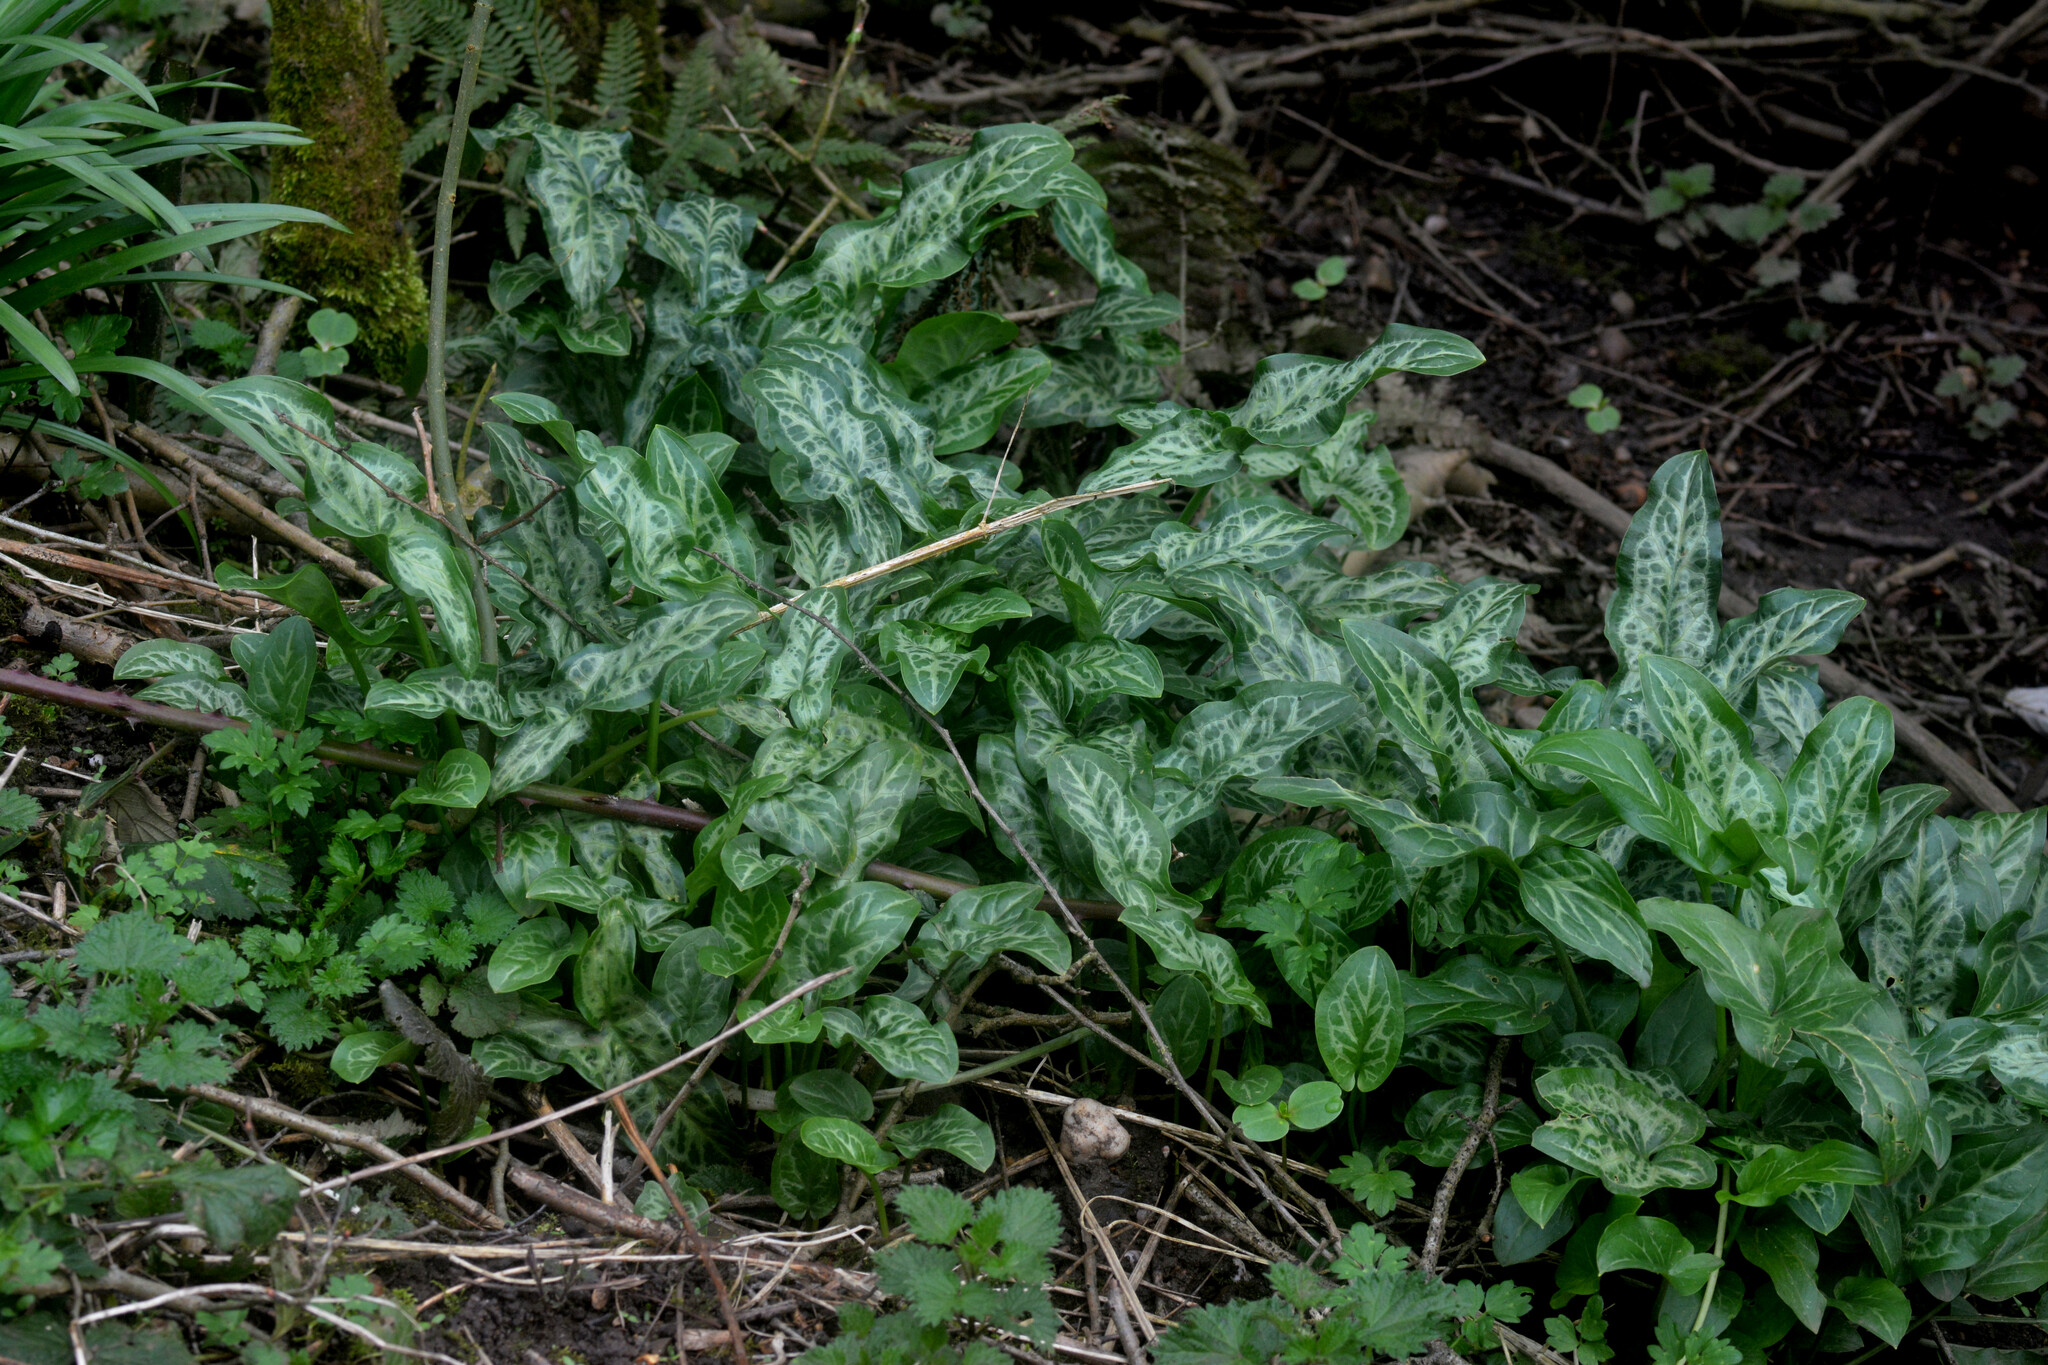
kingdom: Plantae
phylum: Tracheophyta
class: Liliopsida
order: Alismatales
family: Araceae
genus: Arum
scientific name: Arum italicum
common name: Italian lords-and-ladies
